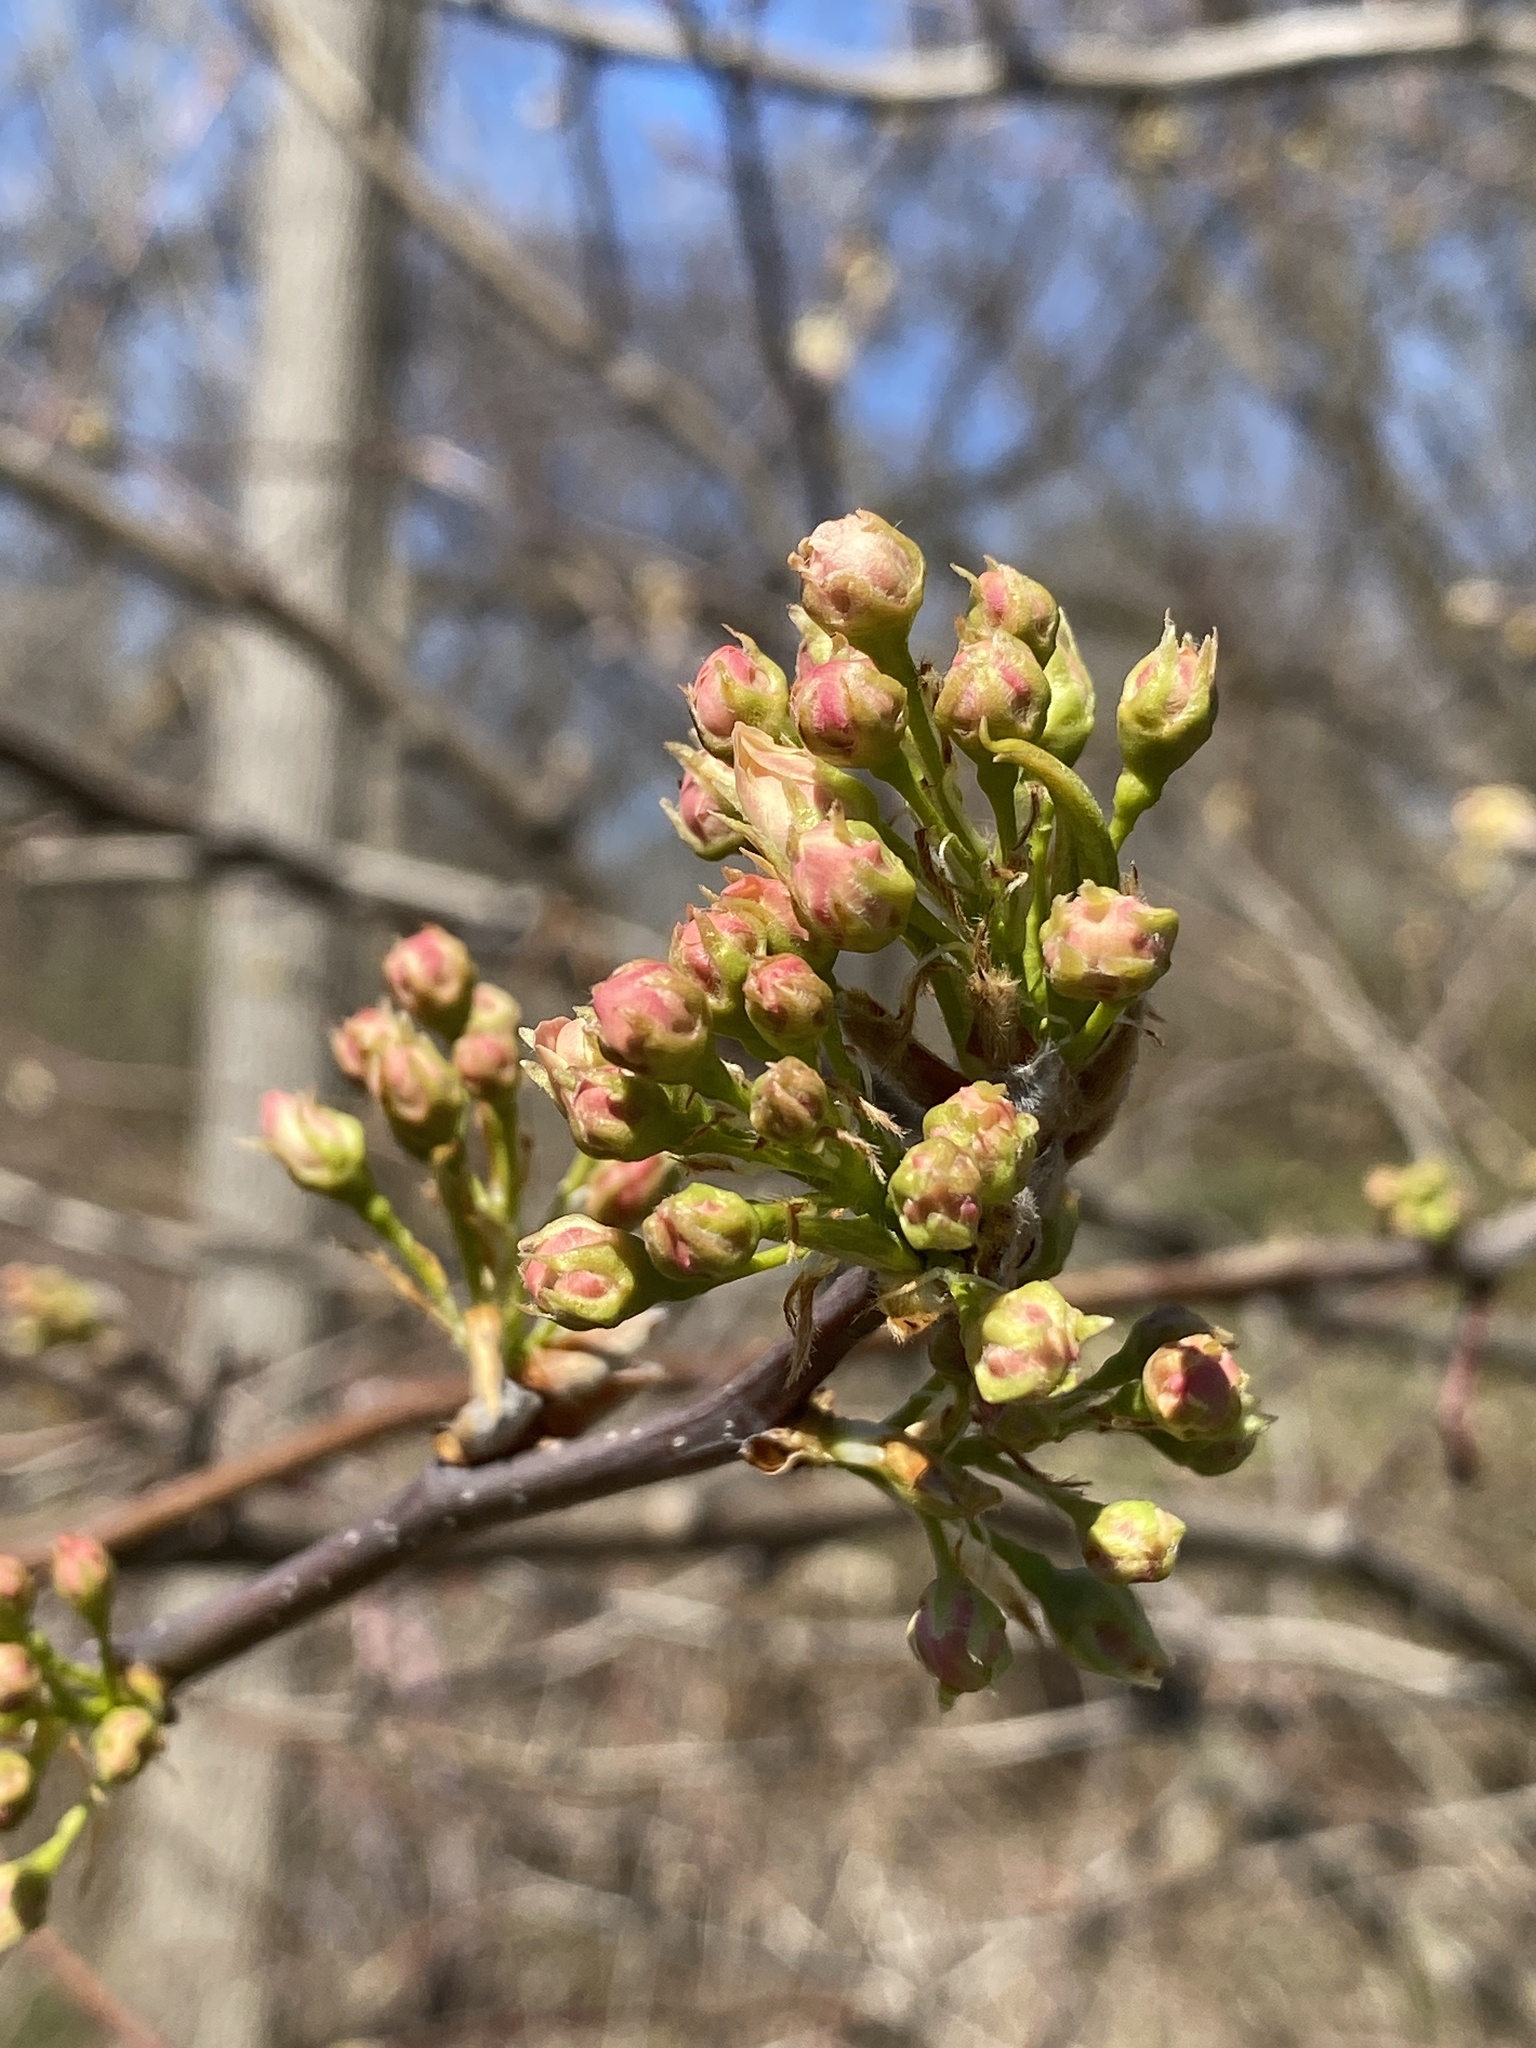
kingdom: Plantae
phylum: Tracheophyta
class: Magnoliopsida
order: Rosales
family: Rosaceae
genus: Pyrus
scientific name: Pyrus calleryana
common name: Callery pear
